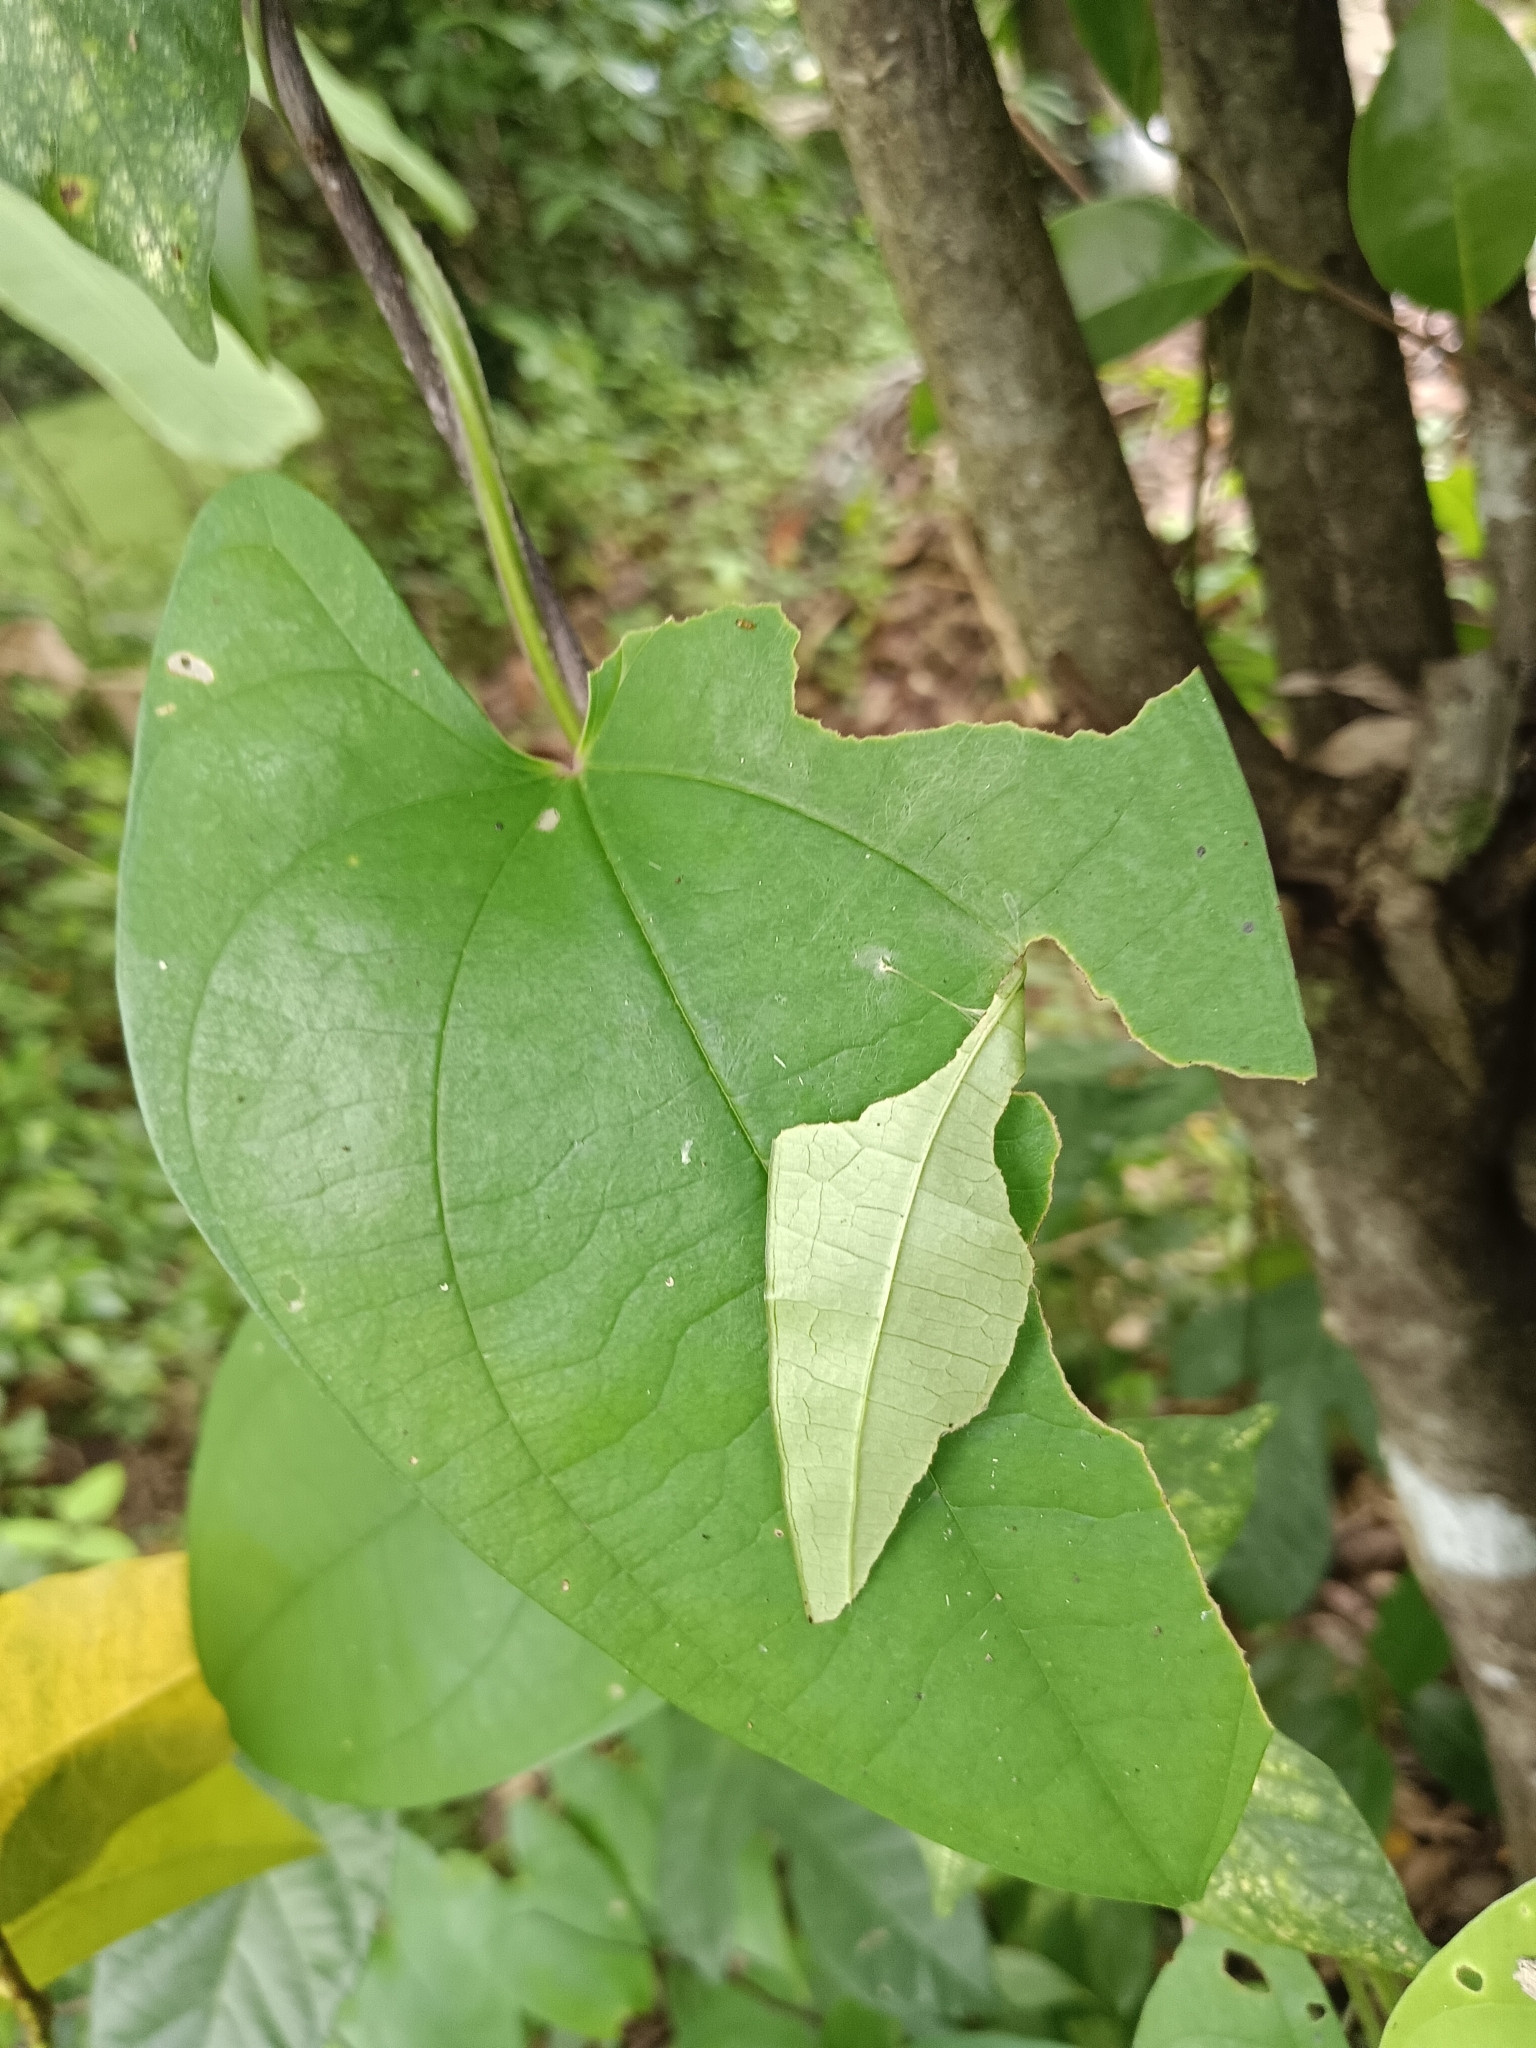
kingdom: Animalia
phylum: Arthropoda
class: Insecta
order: Lepidoptera
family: Hesperiidae
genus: Tagiades
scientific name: Tagiades litigiosa
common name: Water snow flat
